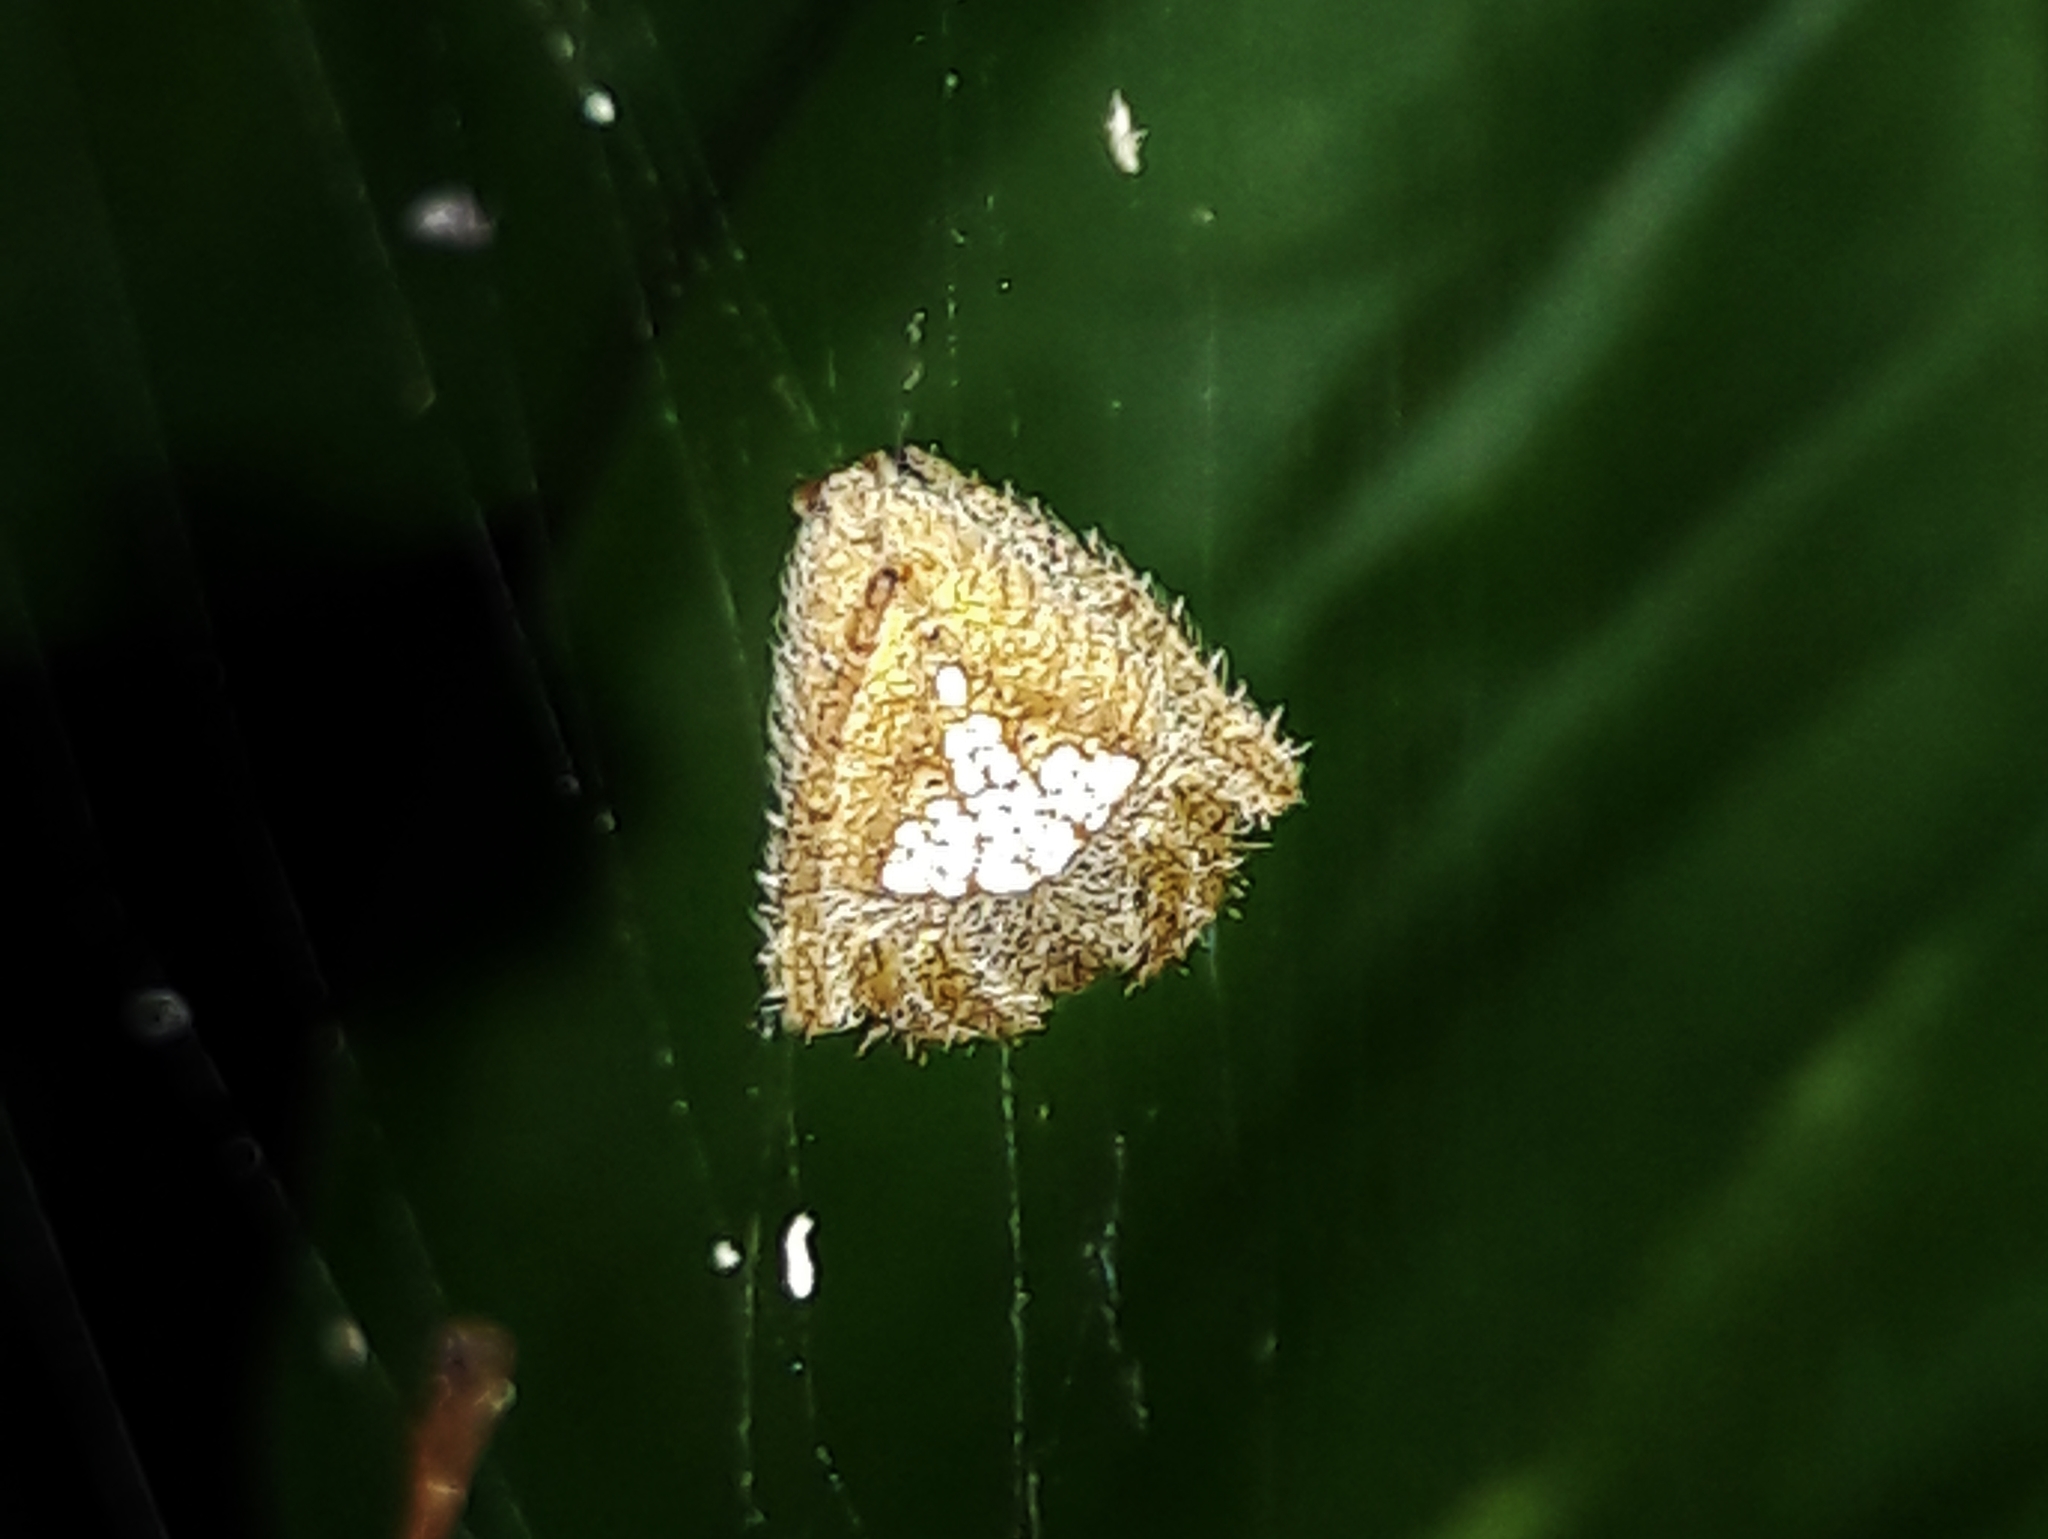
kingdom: Animalia
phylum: Arthropoda
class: Arachnida
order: Araneae
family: Araneidae
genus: Eriophora
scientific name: Eriophora edax
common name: Orb weavers
